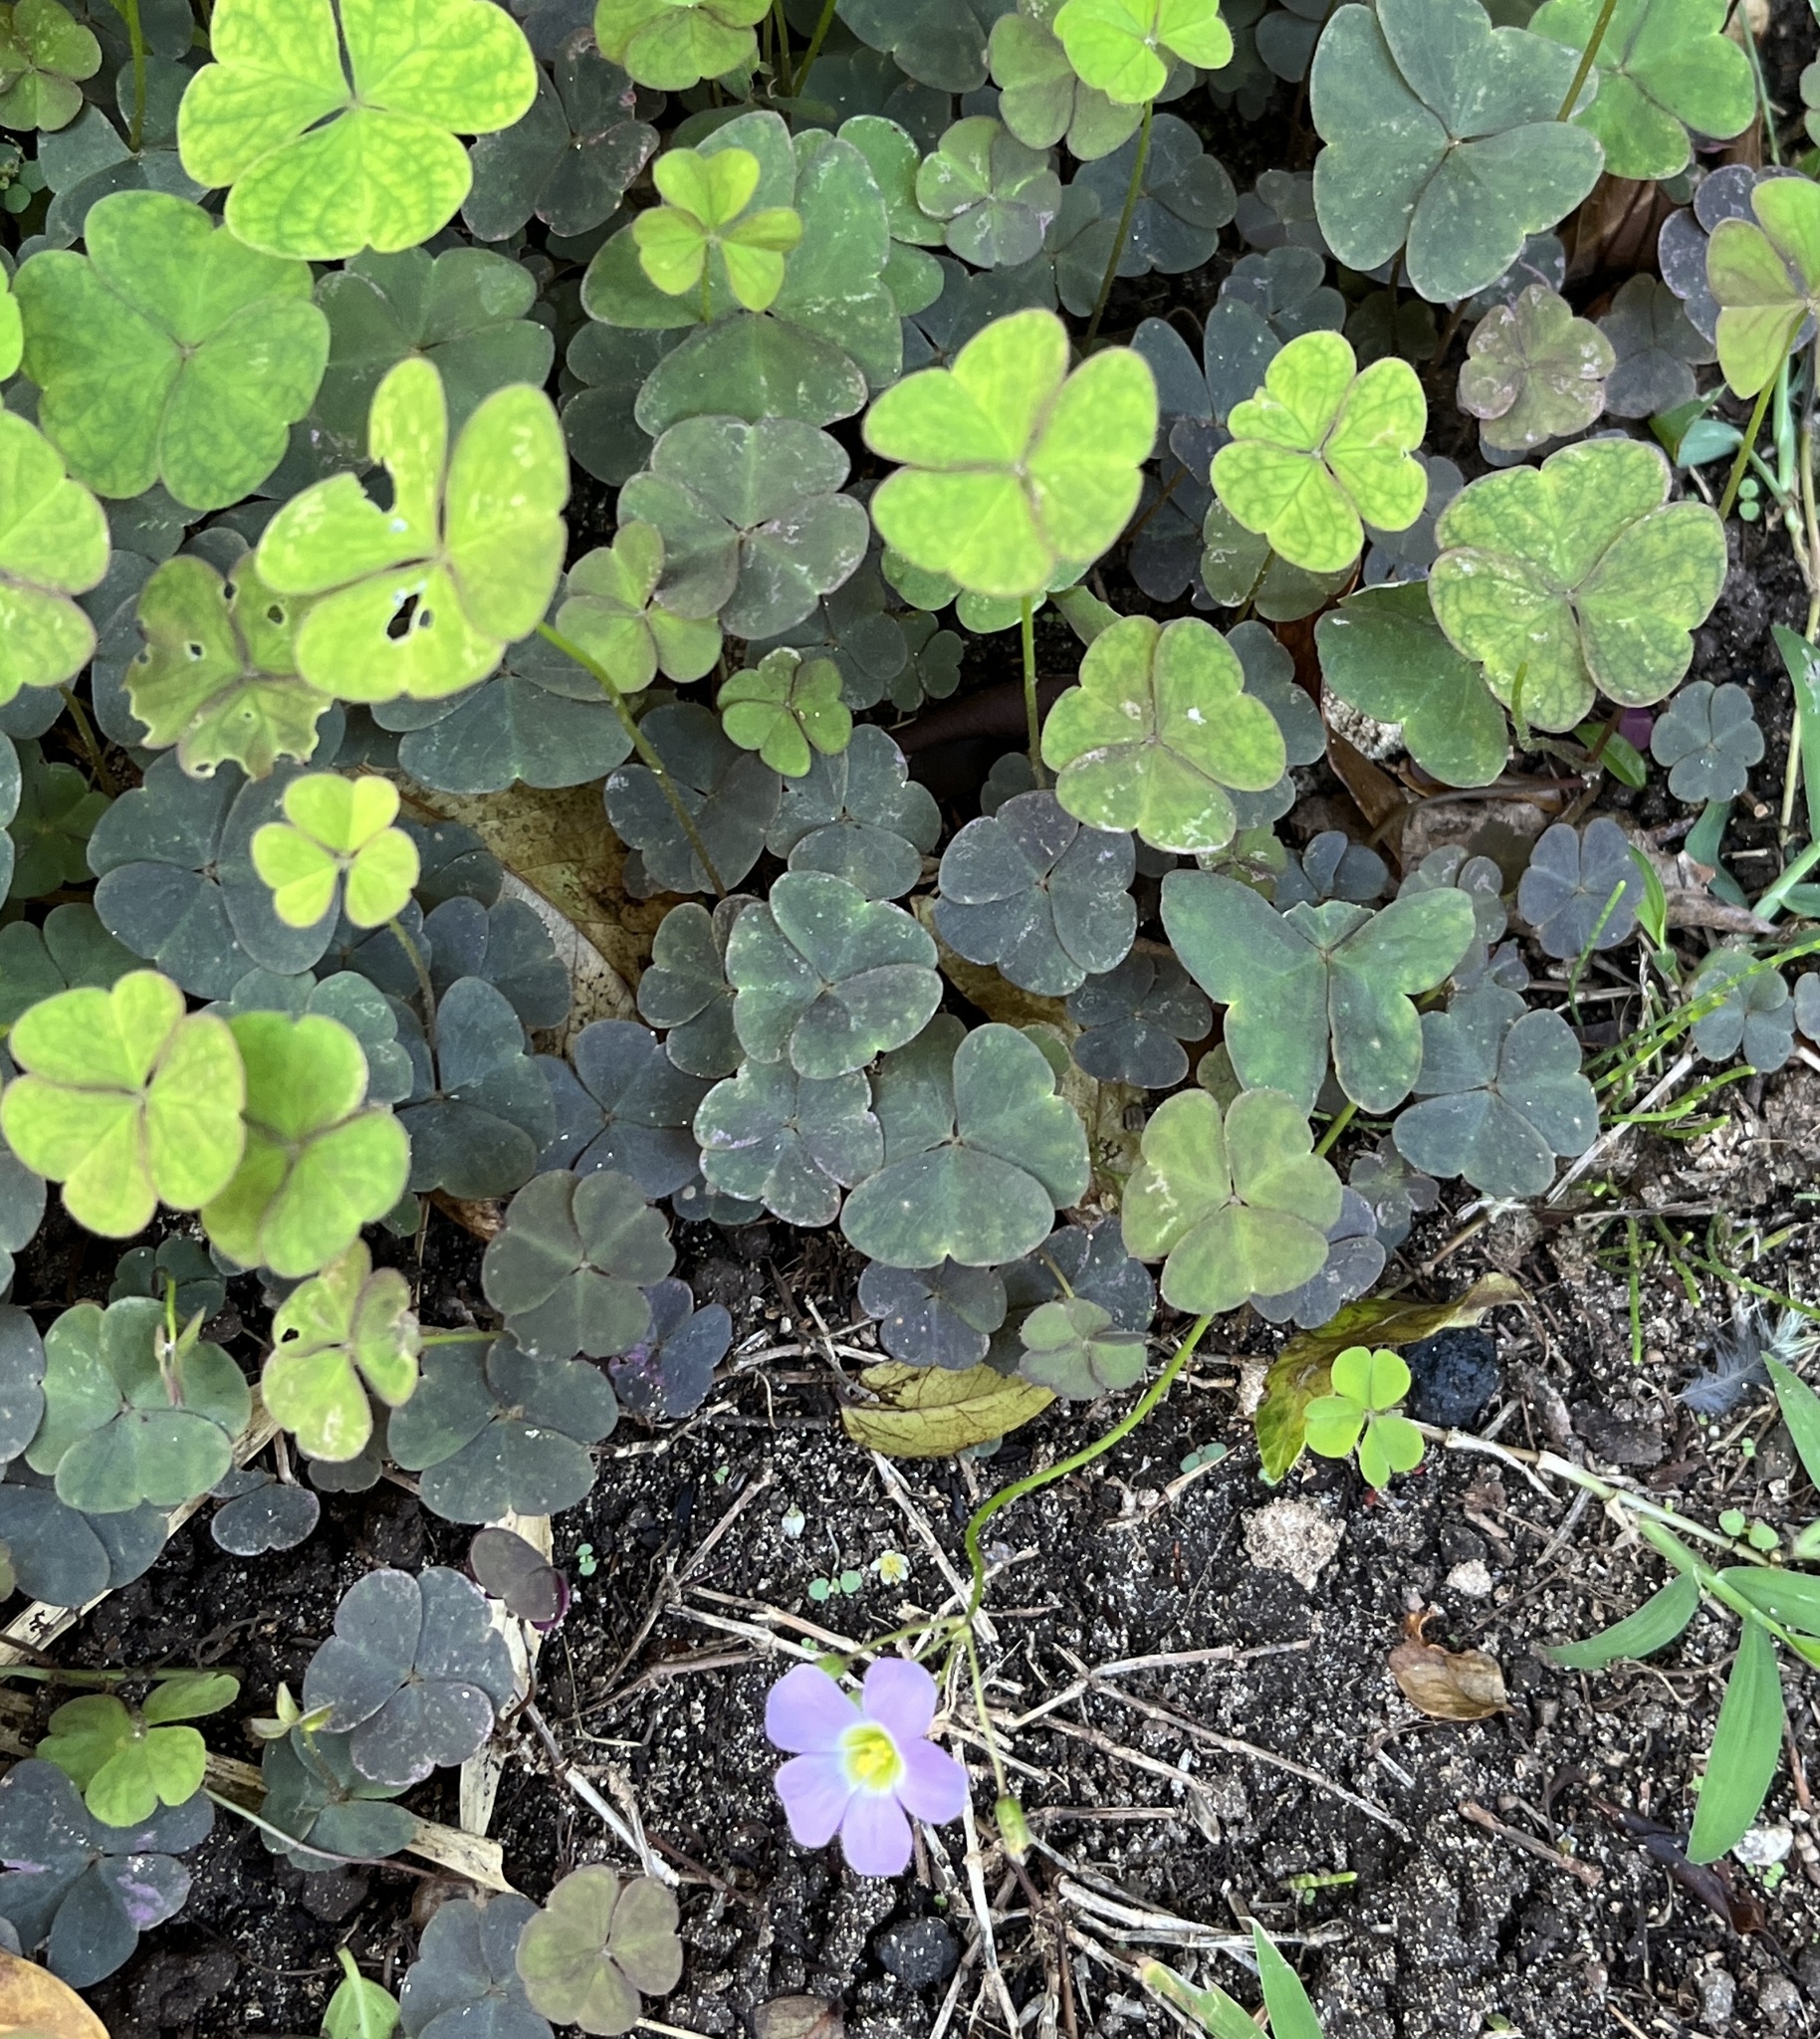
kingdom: Plantae
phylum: Tracheophyta
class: Magnoliopsida
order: Oxalidales
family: Oxalidaceae
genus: Oxalis
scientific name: Oxalis latifolia
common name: Garden pink-sorrel
